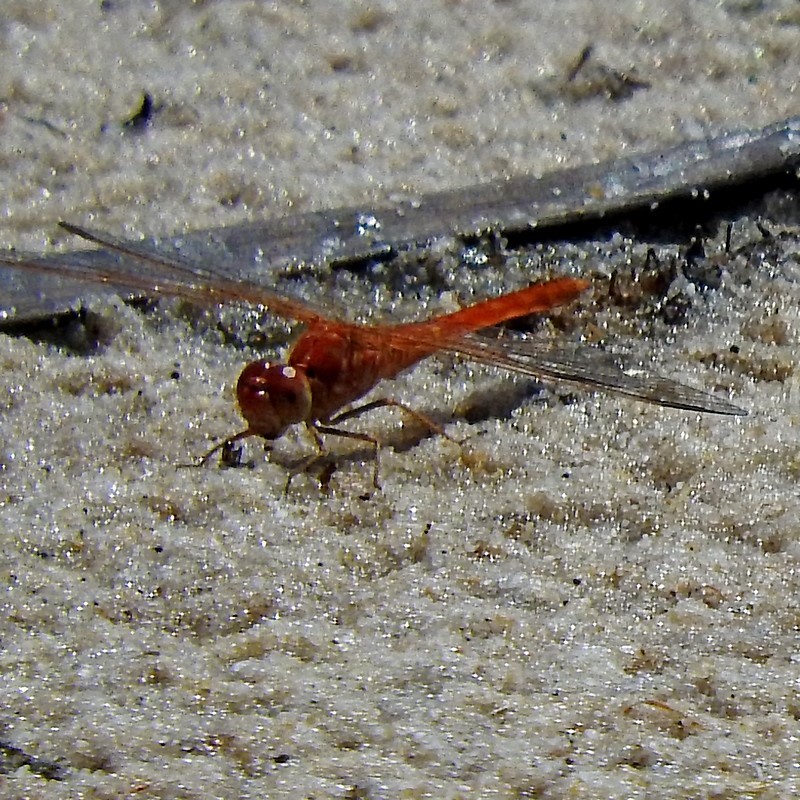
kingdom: Animalia
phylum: Arthropoda
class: Insecta
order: Odonata
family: Libellulidae
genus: Diplacodes
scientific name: Diplacodes haematodes
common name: Scarlet percher
